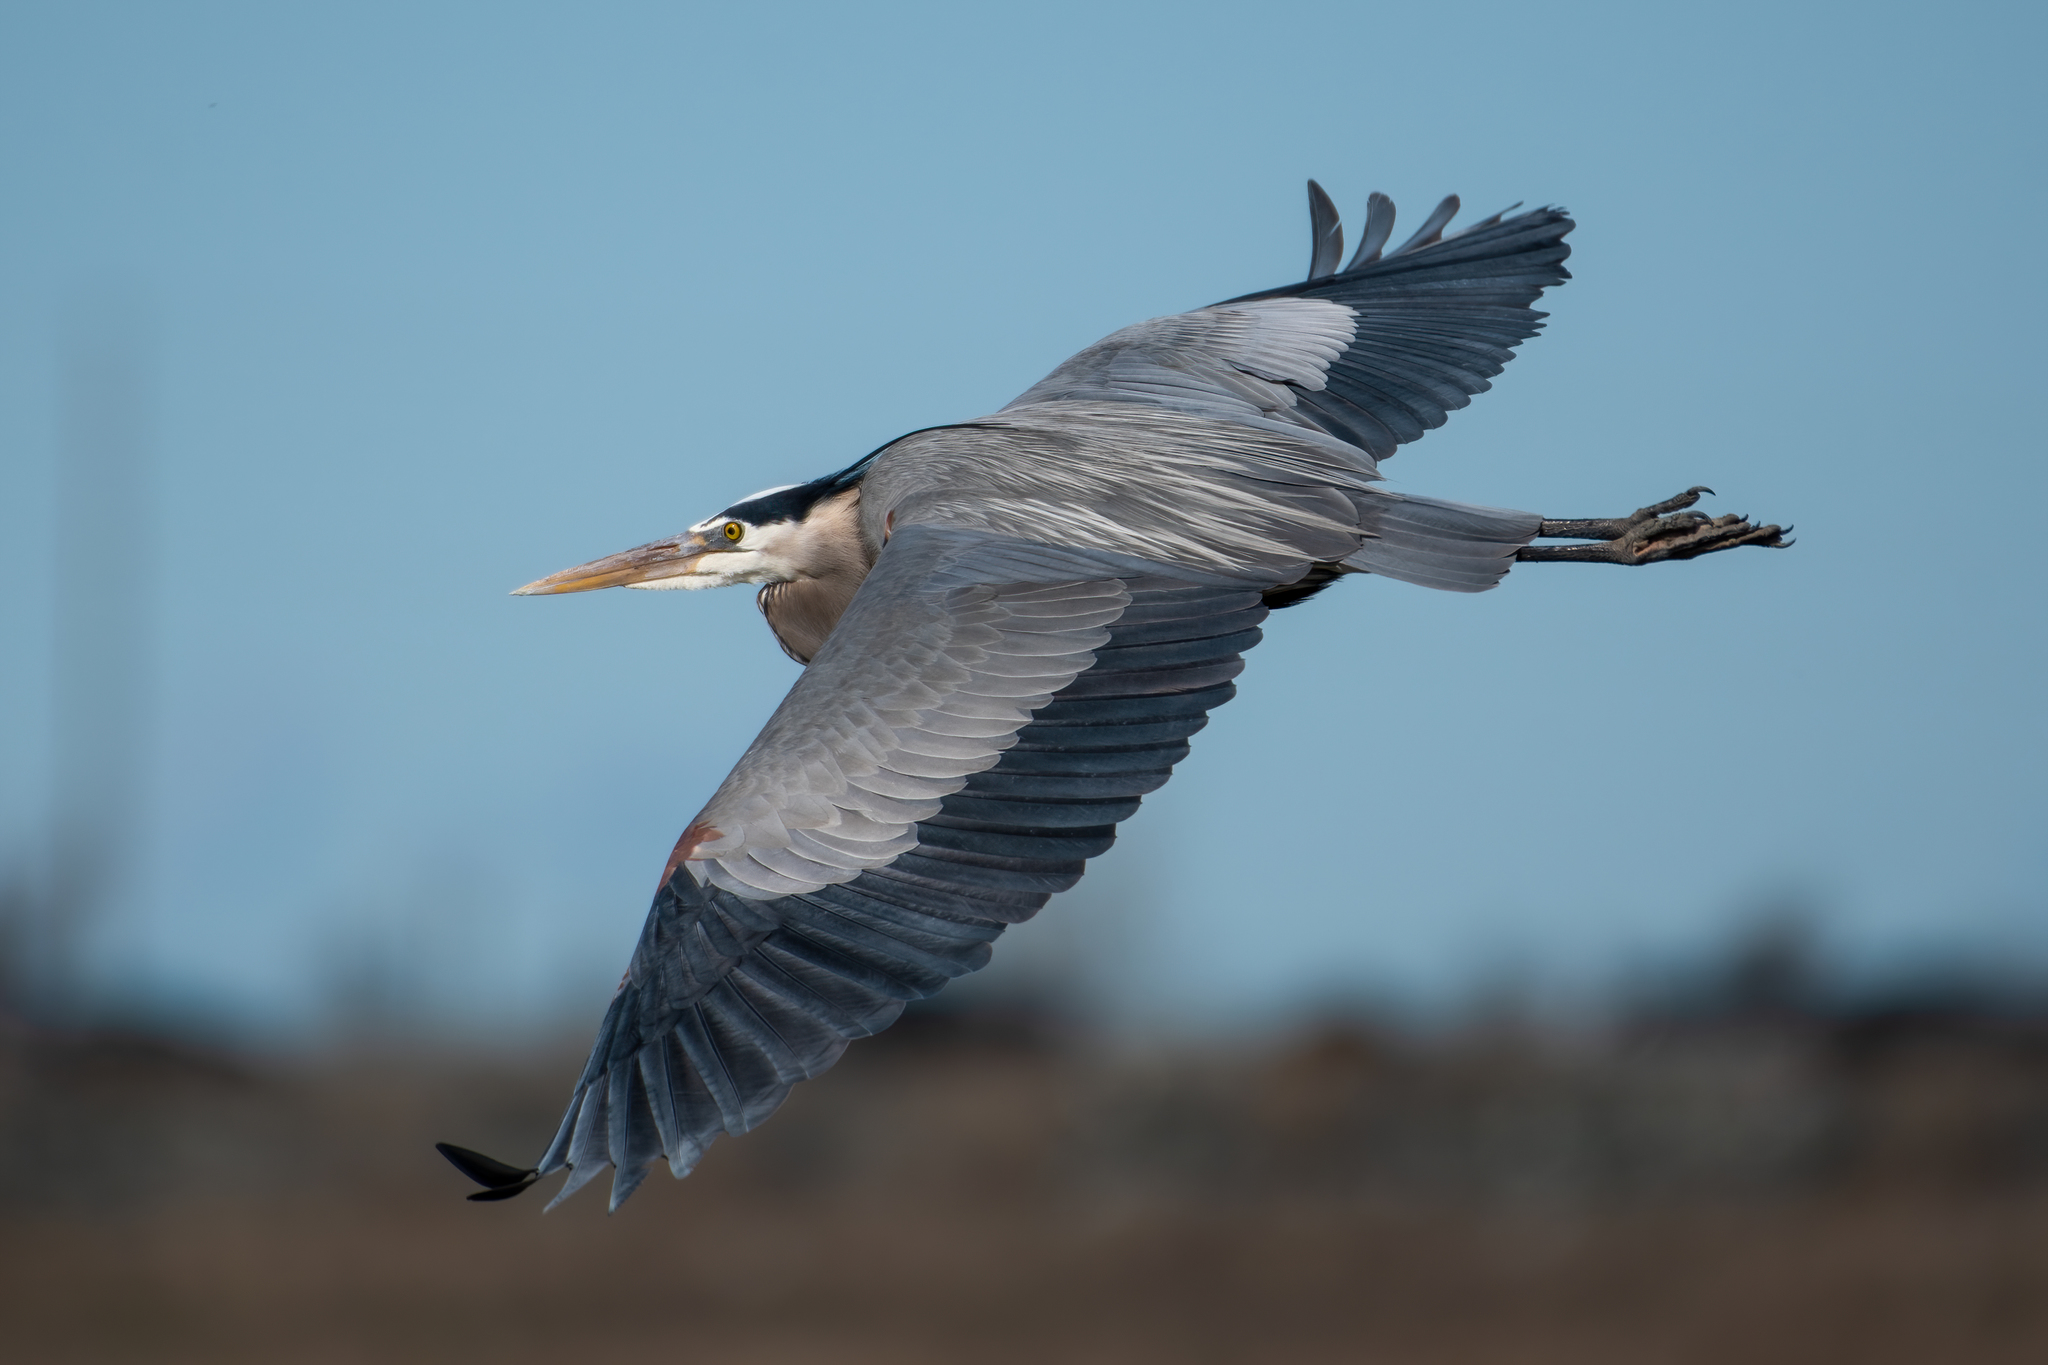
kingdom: Animalia
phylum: Chordata
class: Aves
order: Pelecaniformes
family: Ardeidae
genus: Ardea
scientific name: Ardea herodias
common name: Great blue heron
